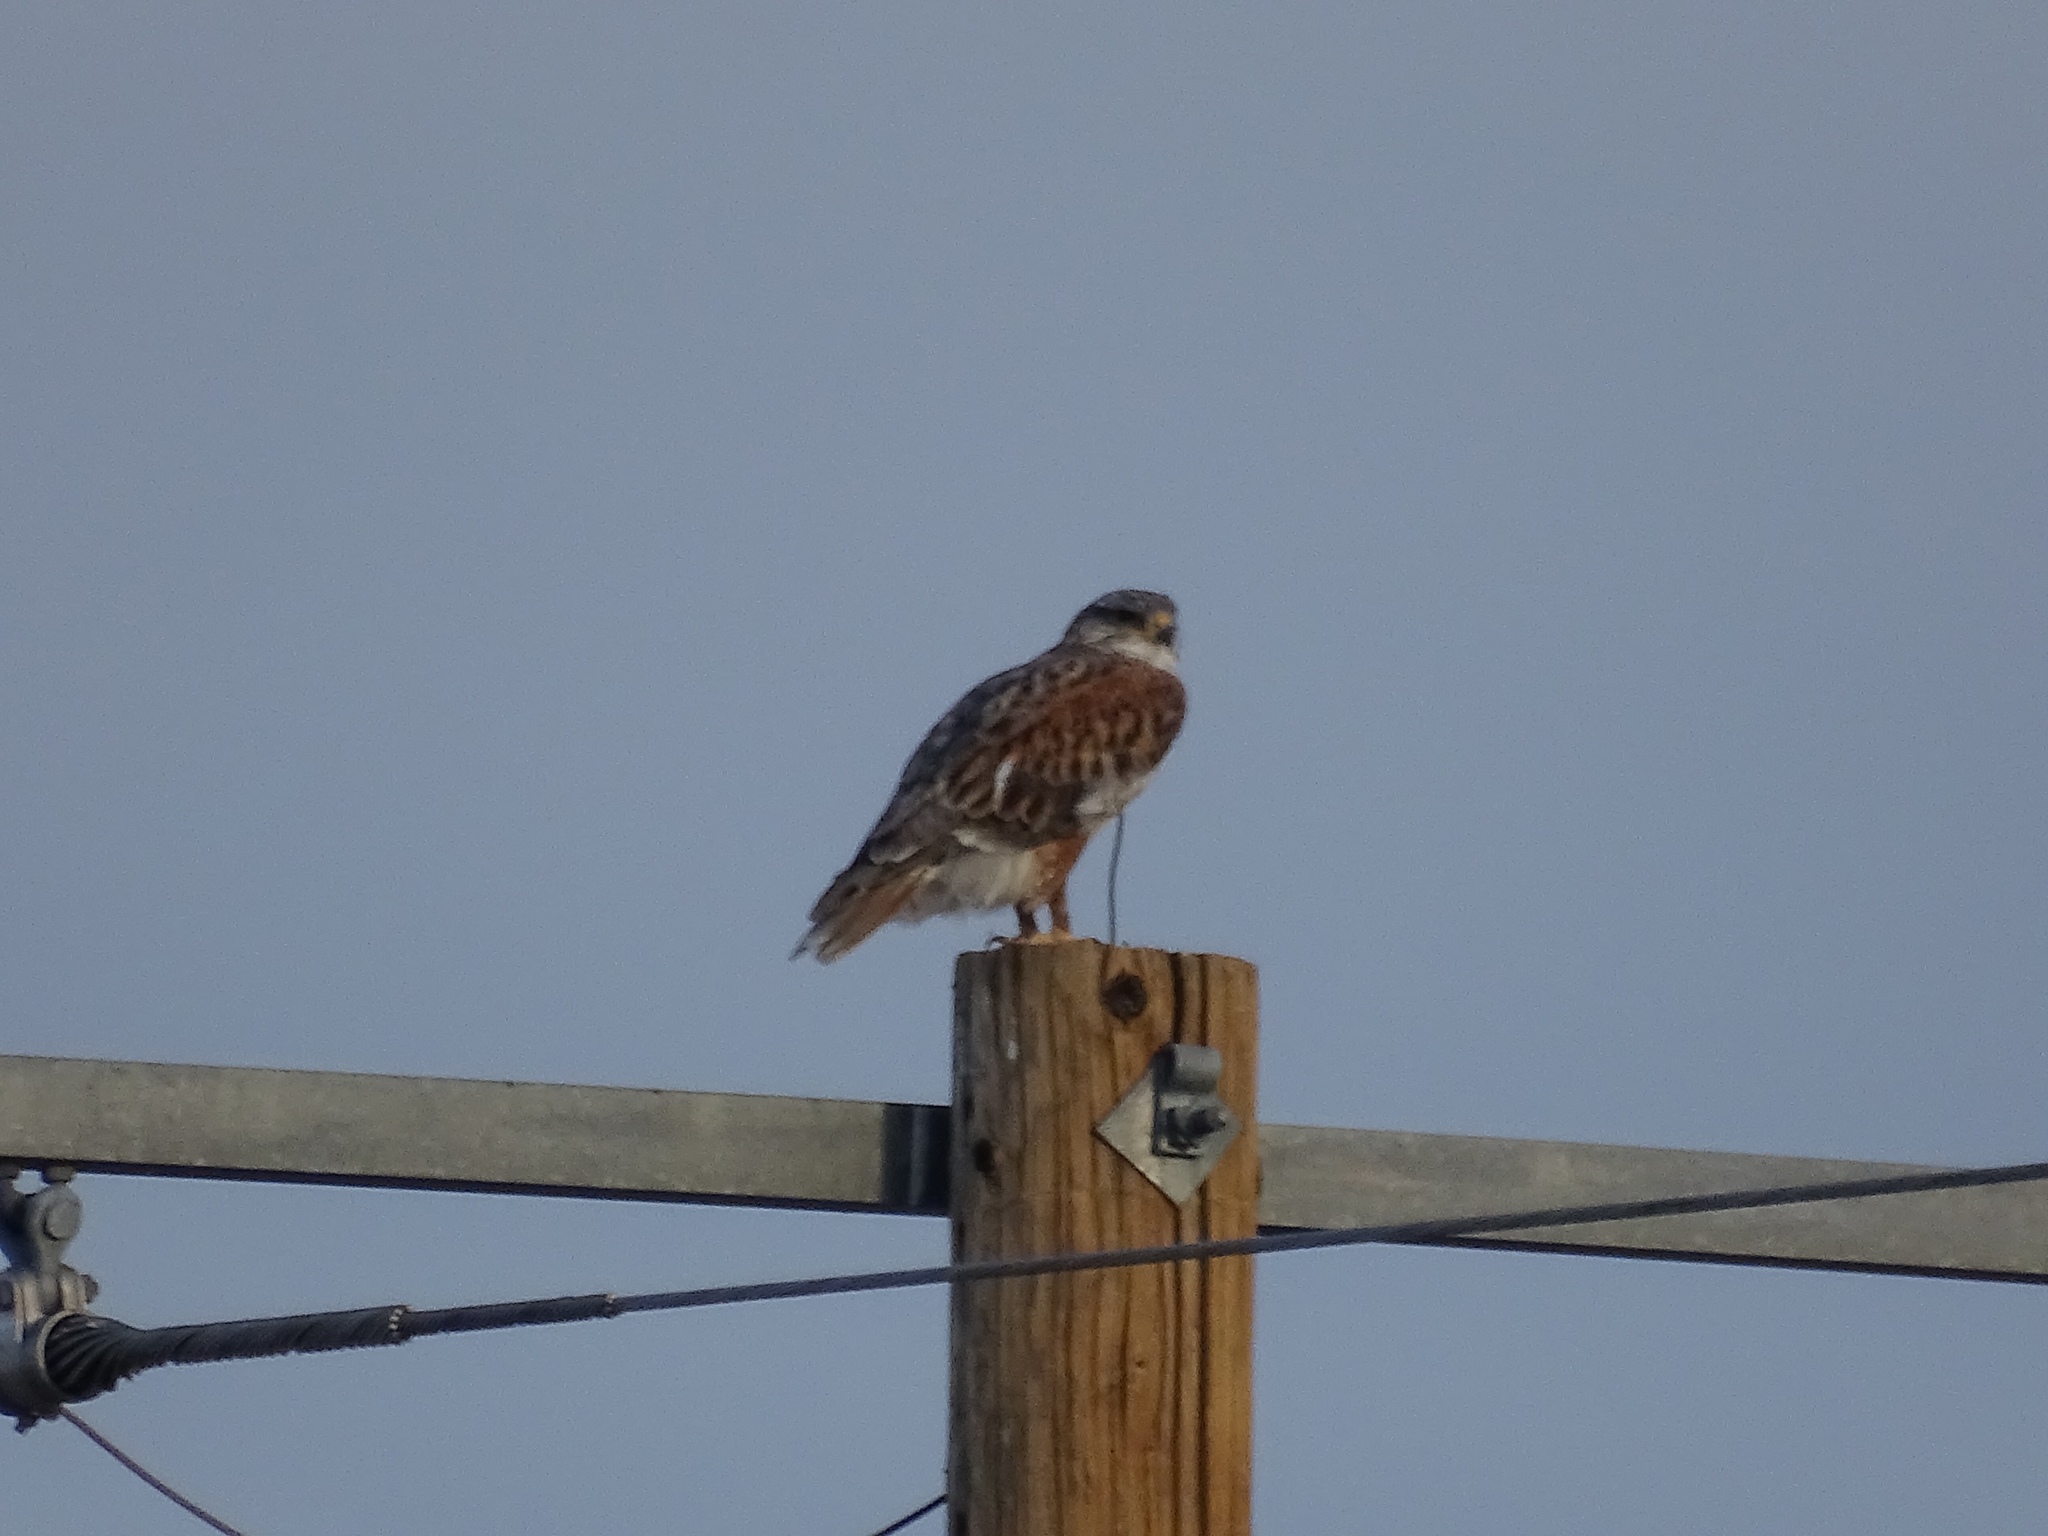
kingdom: Animalia
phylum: Chordata
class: Aves
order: Accipitriformes
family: Accipitridae
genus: Buteo
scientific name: Buteo regalis
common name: Ferruginous hawk
